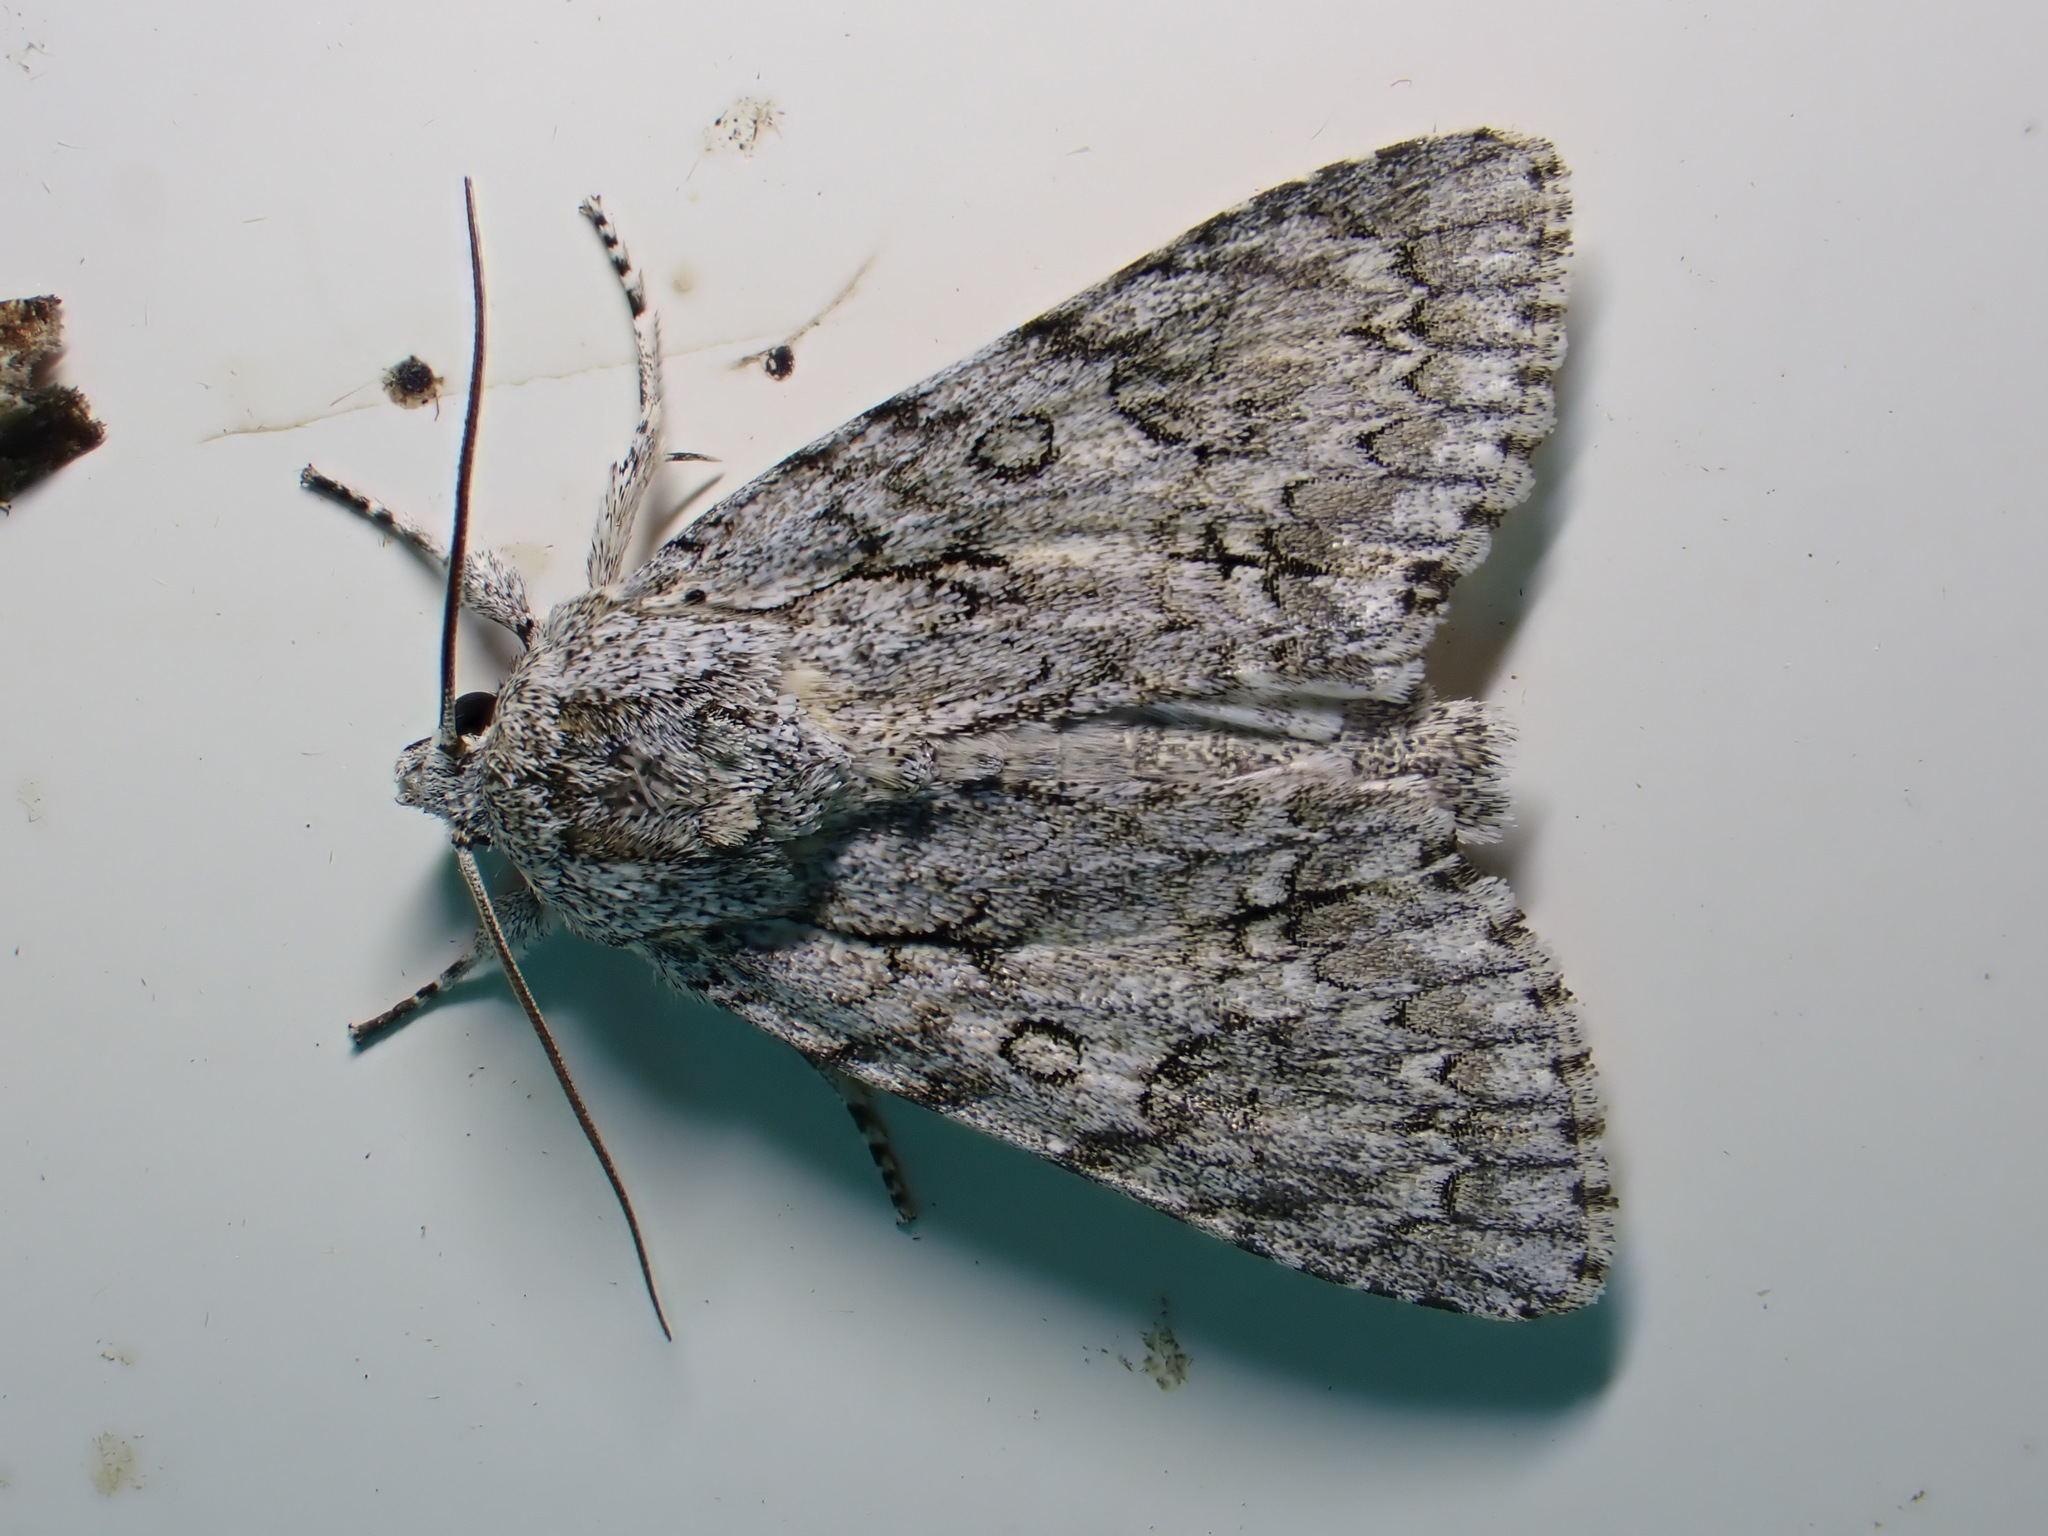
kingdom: Animalia
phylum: Arthropoda
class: Insecta
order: Lepidoptera
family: Noctuidae
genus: Acronicta
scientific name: Acronicta aceris
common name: Sycamore
